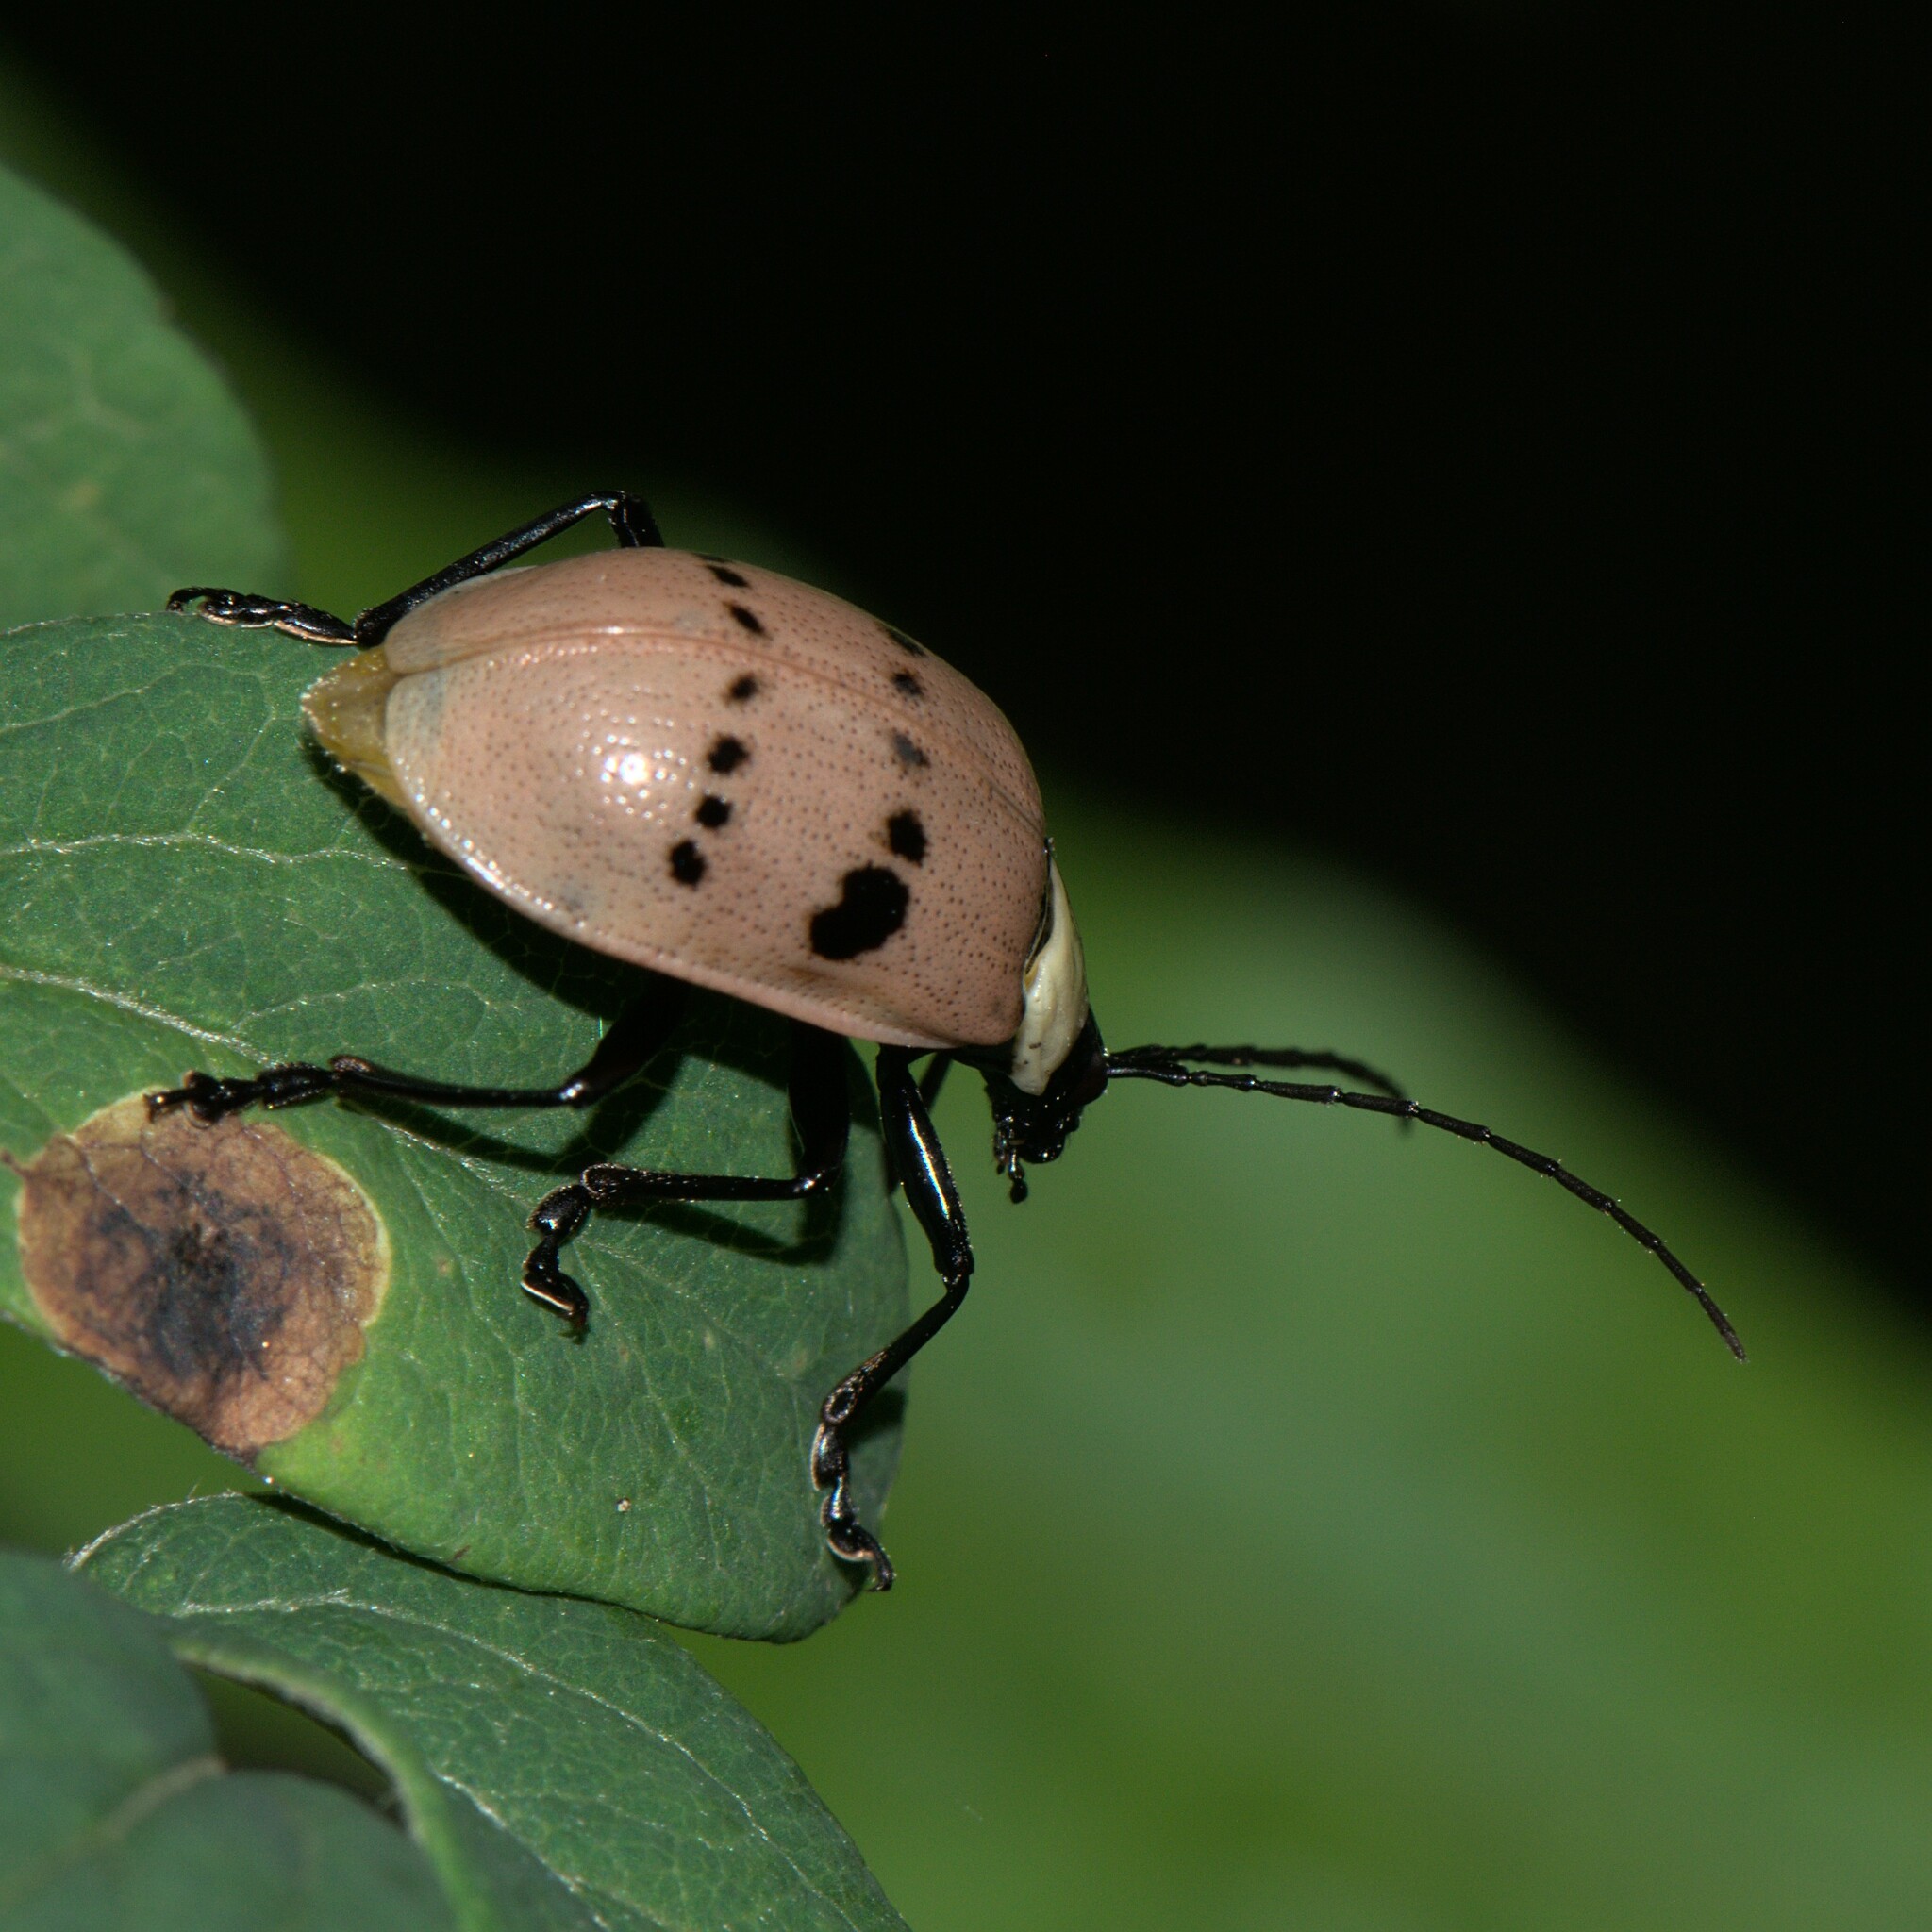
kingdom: Animalia
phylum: Arthropoda
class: Insecta
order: Coleoptera
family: Chrysomelidae
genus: Meristata
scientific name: Meristata
